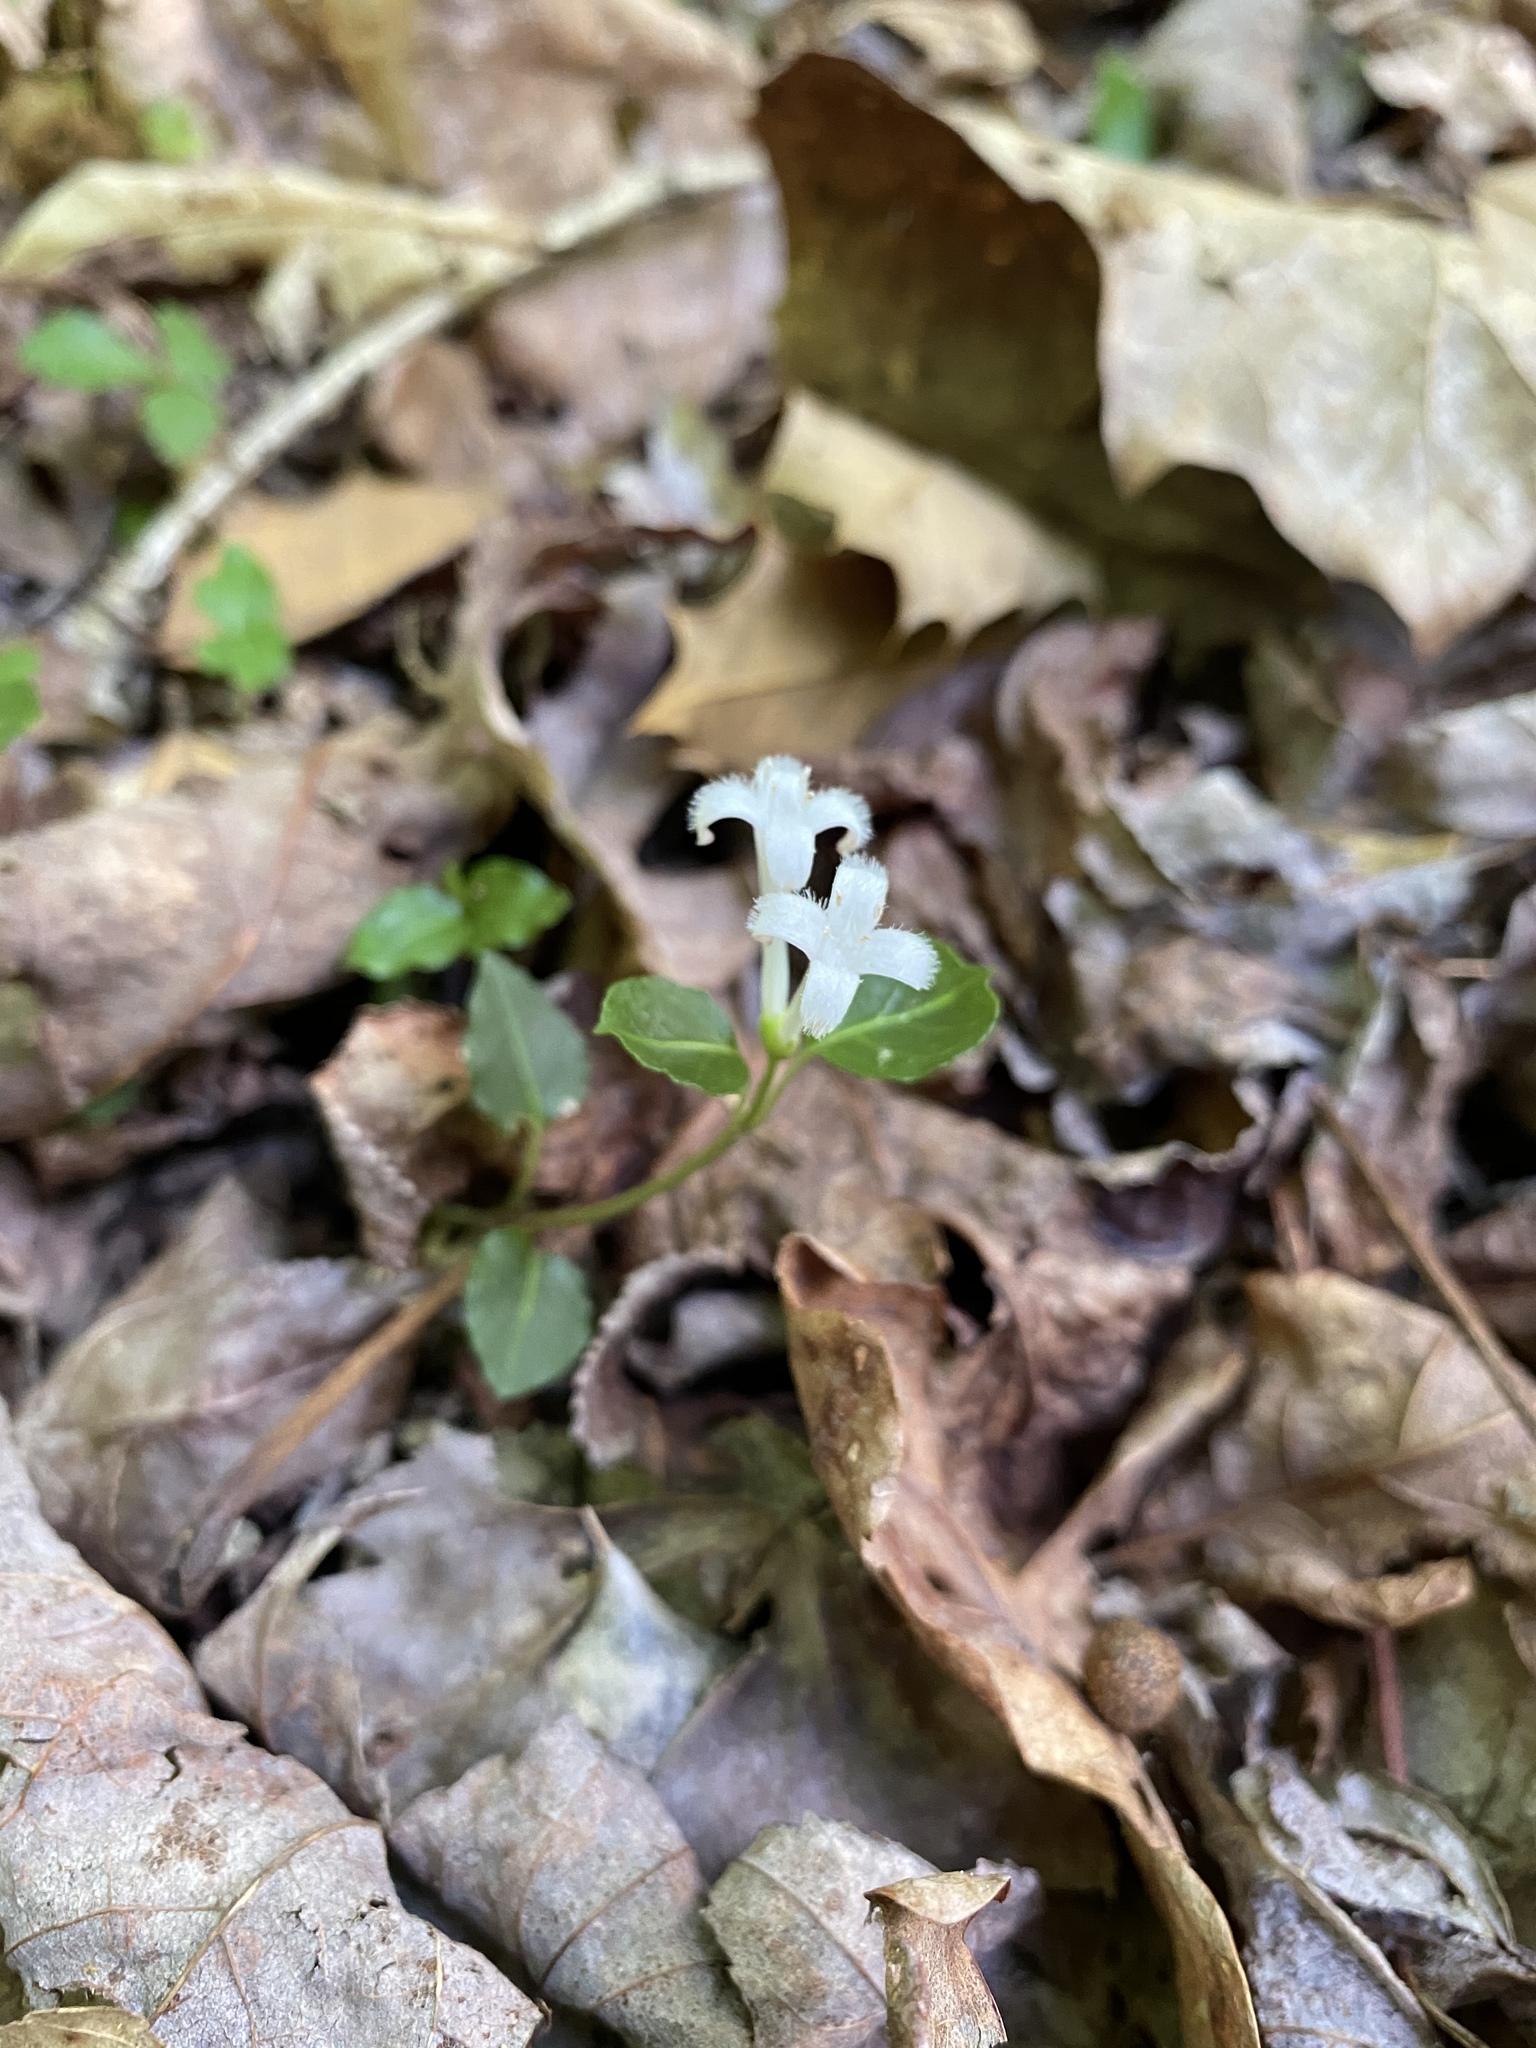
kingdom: Plantae
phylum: Tracheophyta
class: Magnoliopsida
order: Gentianales
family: Rubiaceae
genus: Mitchella
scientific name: Mitchella repens
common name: Partridge-berry
